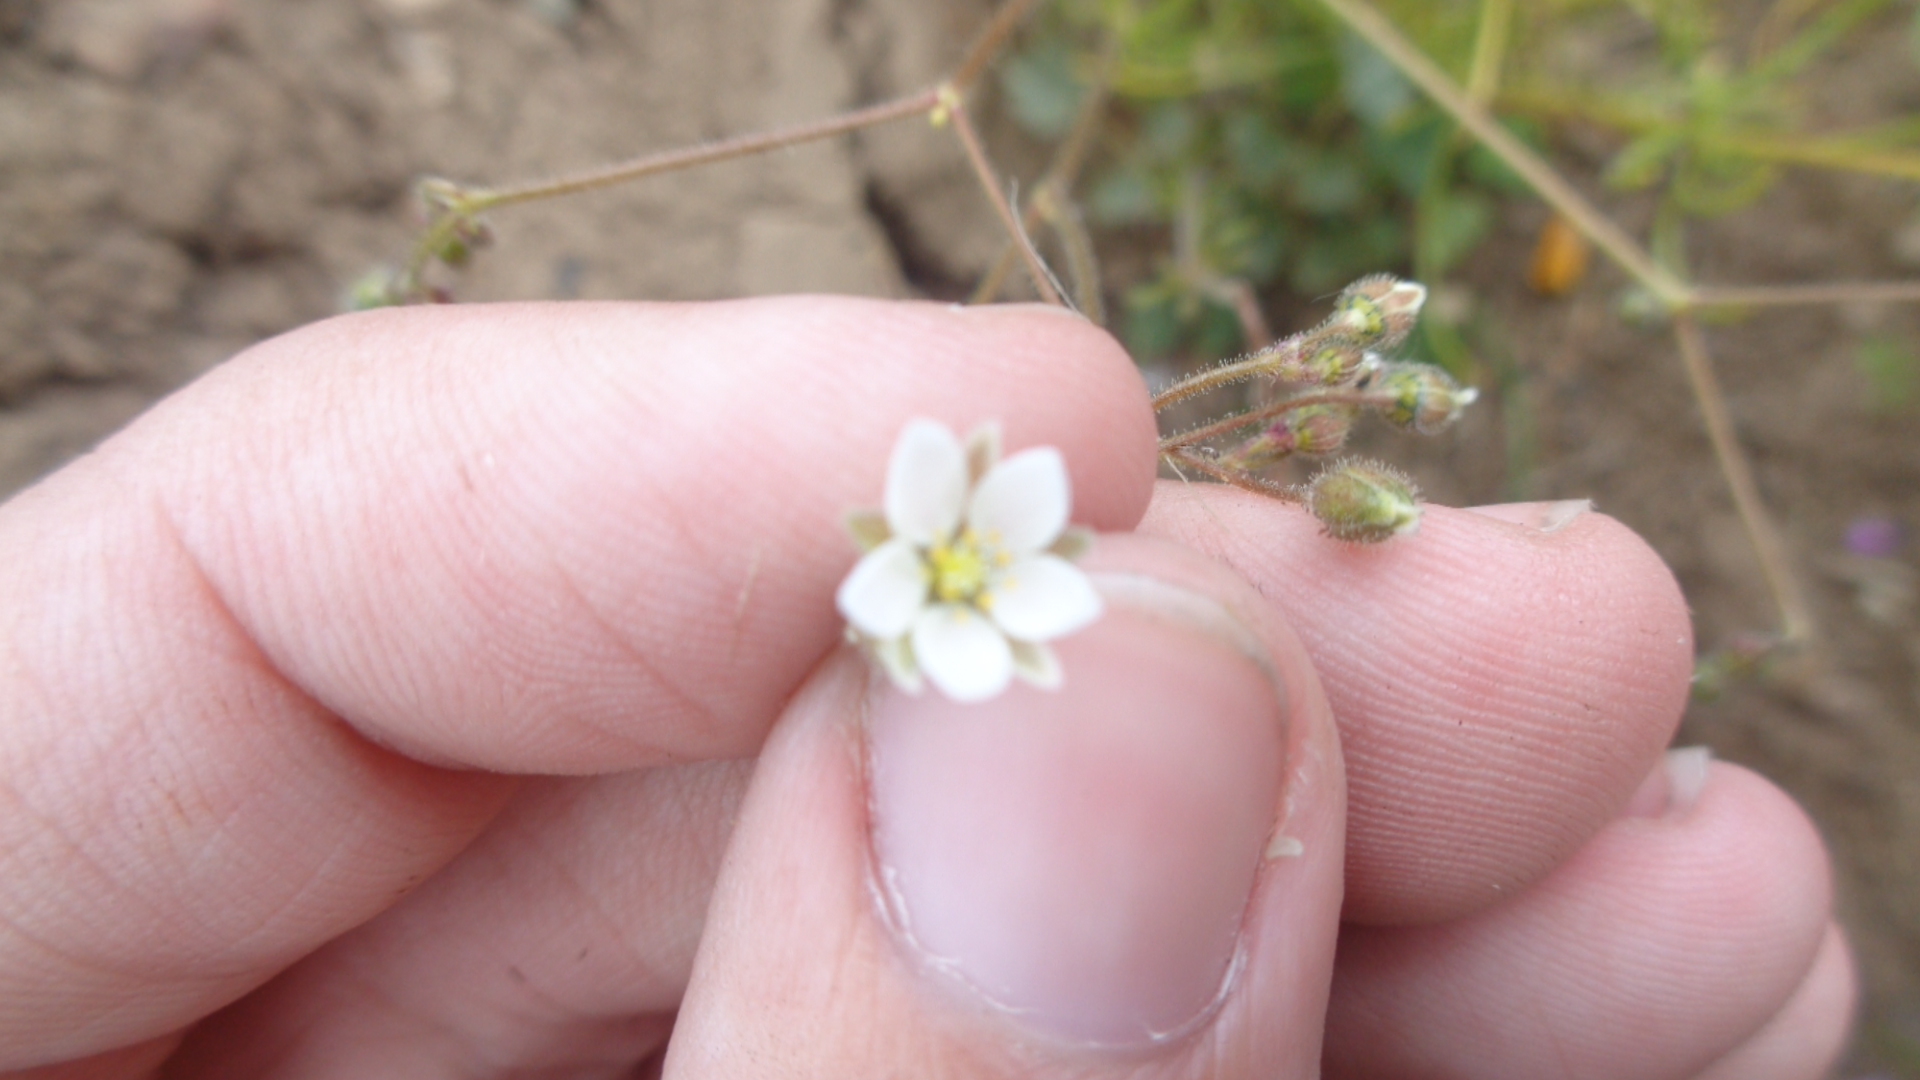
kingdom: Plantae
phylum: Tracheophyta
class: Magnoliopsida
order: Caryophyllales
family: Caryophyllaceae
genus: Spergula
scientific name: Spergula arvensis
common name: Corn spurrey
